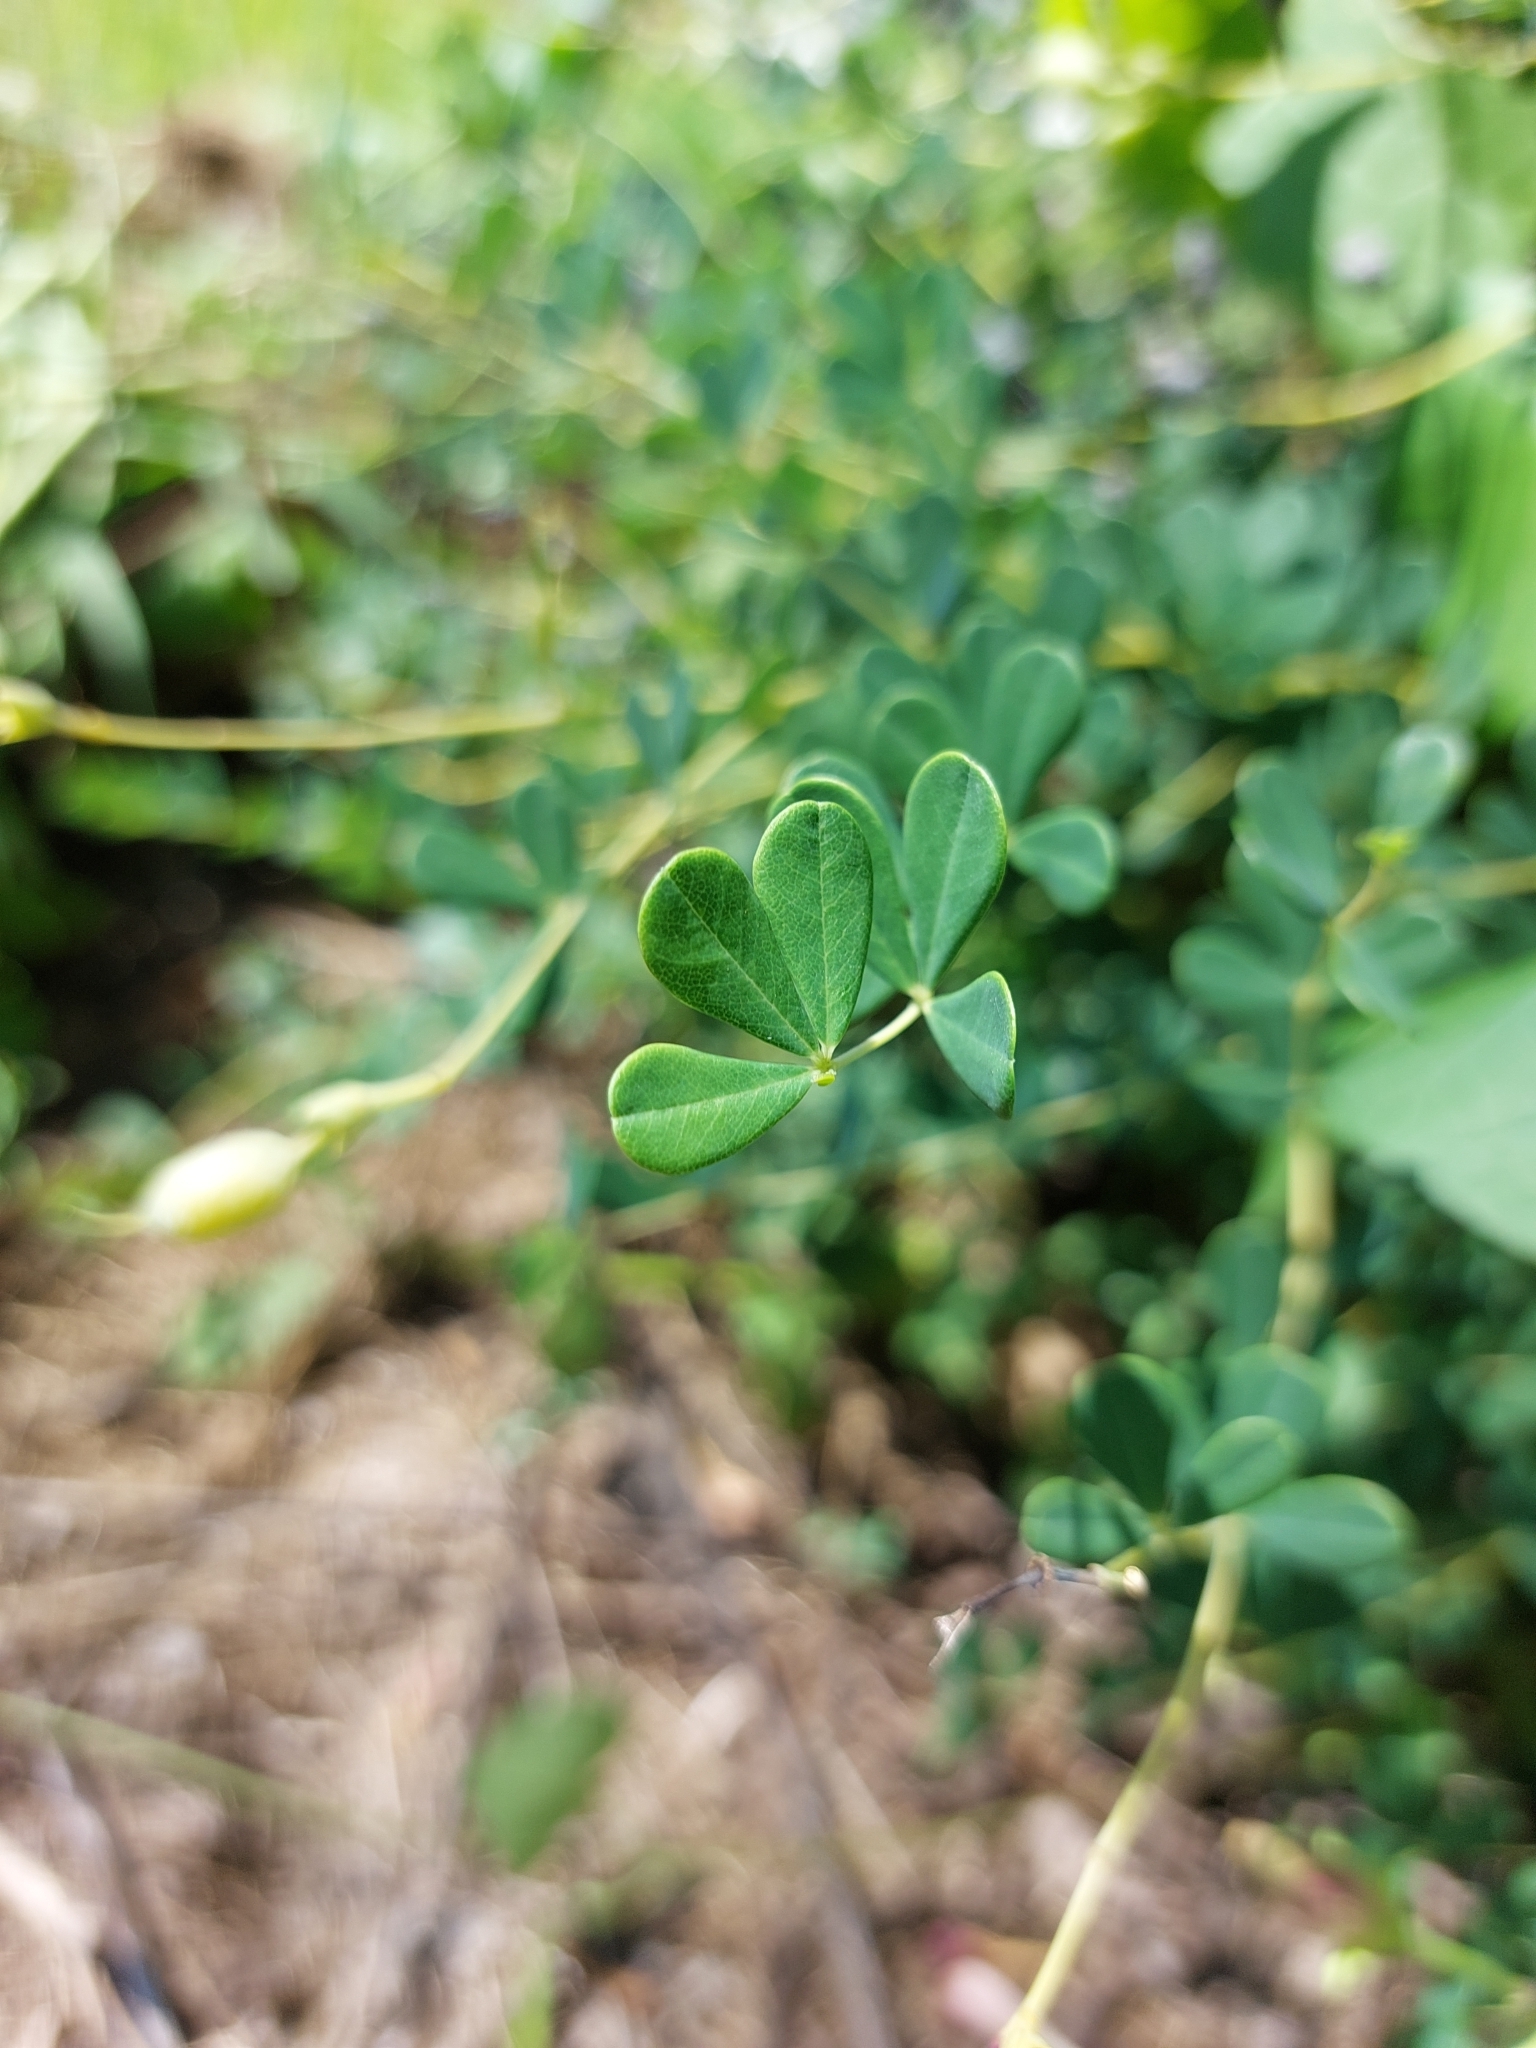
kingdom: Plantae
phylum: Tracheophyta
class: Magnoliopsida
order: Fabales
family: Fabaceae
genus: Baptisia
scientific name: Baptisia tinctoria
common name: Wild indigo
